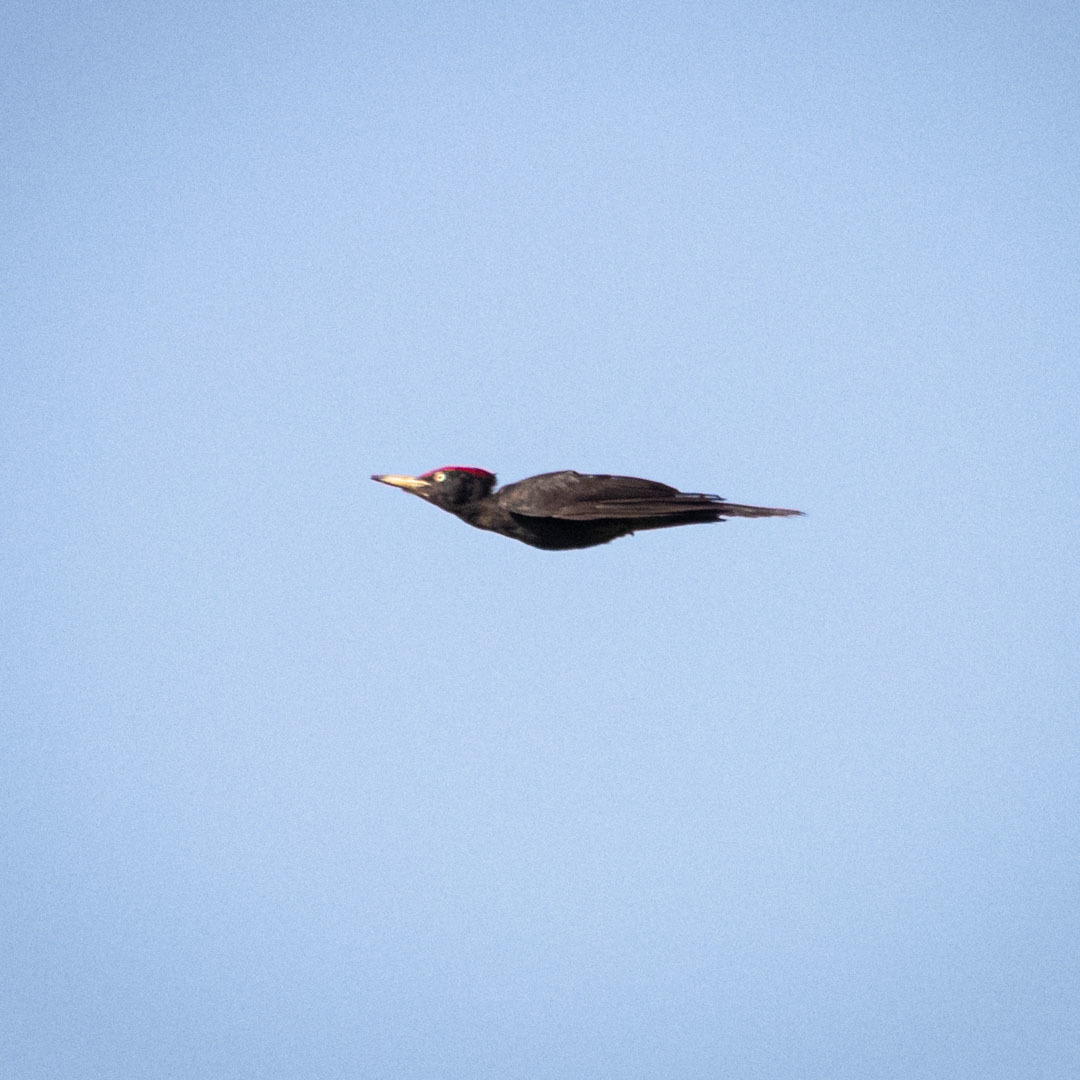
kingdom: Animalia
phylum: Chordata
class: Aves
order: Piciformes
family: Picidae
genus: Dryocopus
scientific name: Dryocopus martius
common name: Black woodpecker
